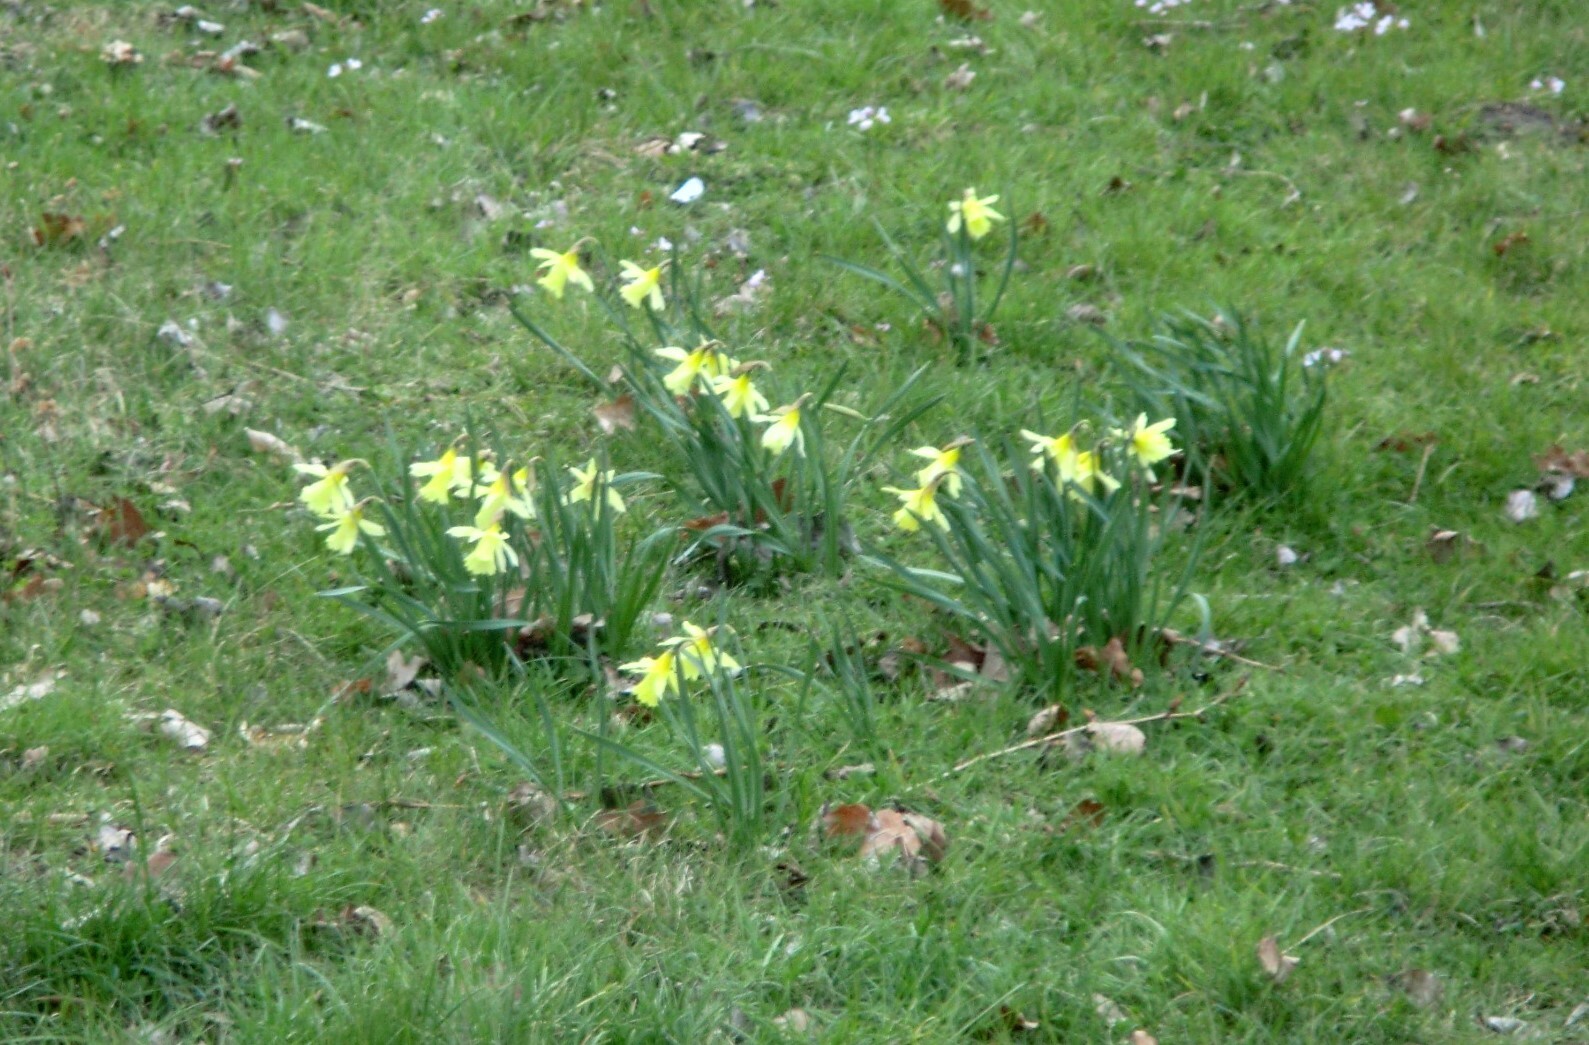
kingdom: Plantae
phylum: Tracheophyta
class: Liliopsida
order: Asparagales
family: Amaryllidaceae
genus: Narcissus
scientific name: Narcissus pseudonarcissus
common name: Daffodil
